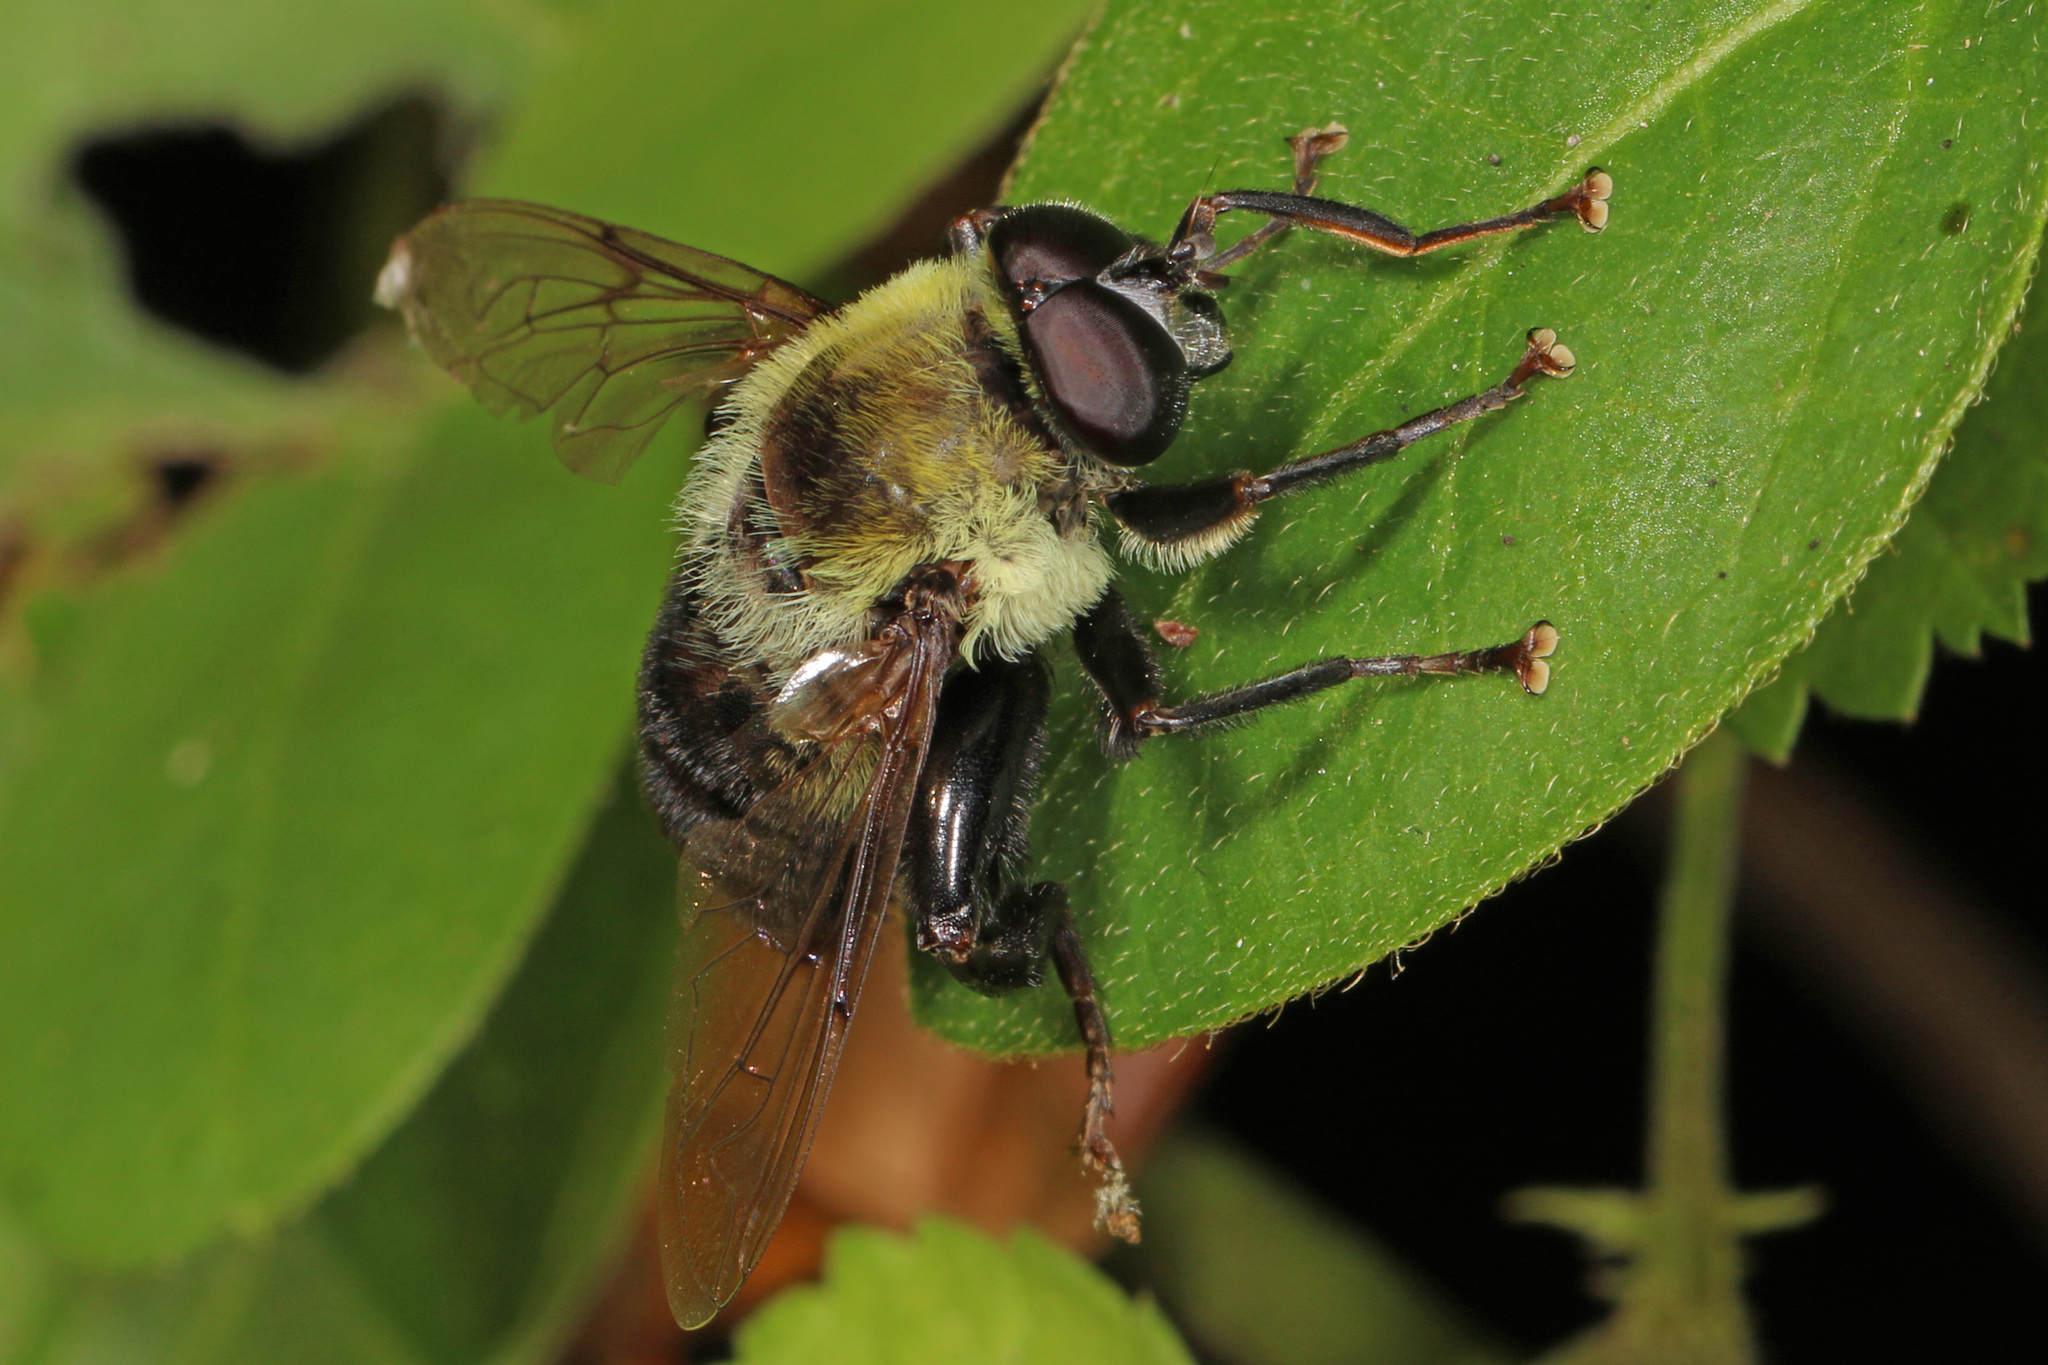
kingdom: Animalia
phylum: Arthropoda
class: Insecta
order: Diptera
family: Syrphidae
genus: Imatisma
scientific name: Imatisma posticata
